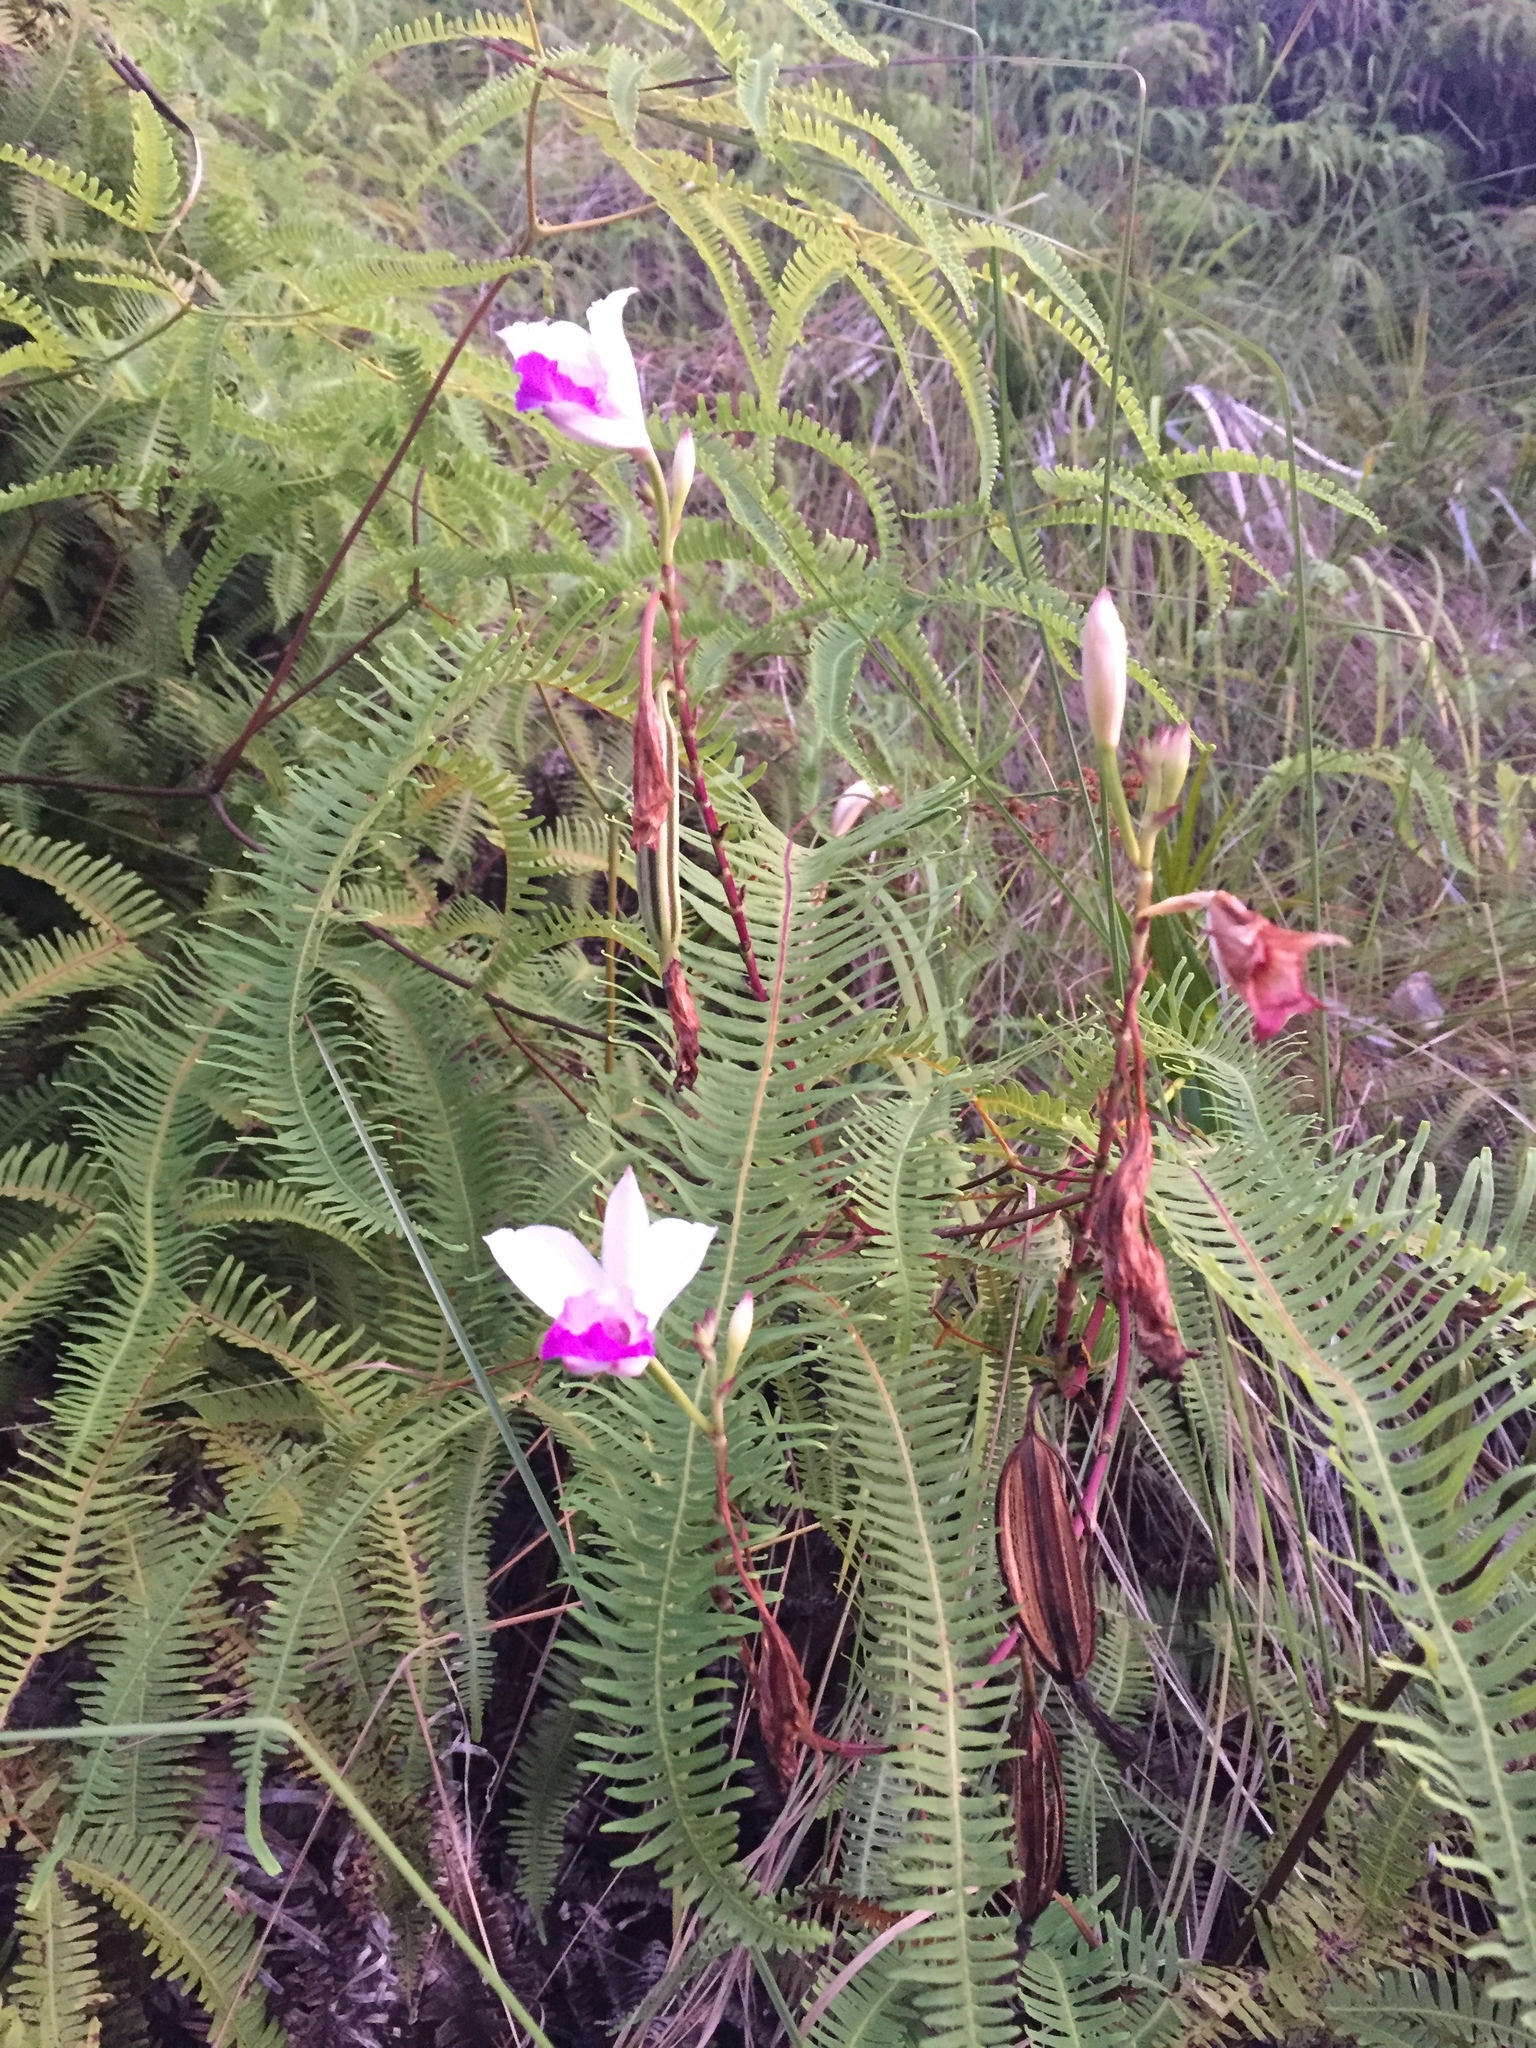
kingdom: Plantae
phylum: Tracheophyta
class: Liliopsida
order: Asparagales
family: Orchidaceae
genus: Arundina
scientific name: Arundina graminifolia
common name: Bamboo orchid
